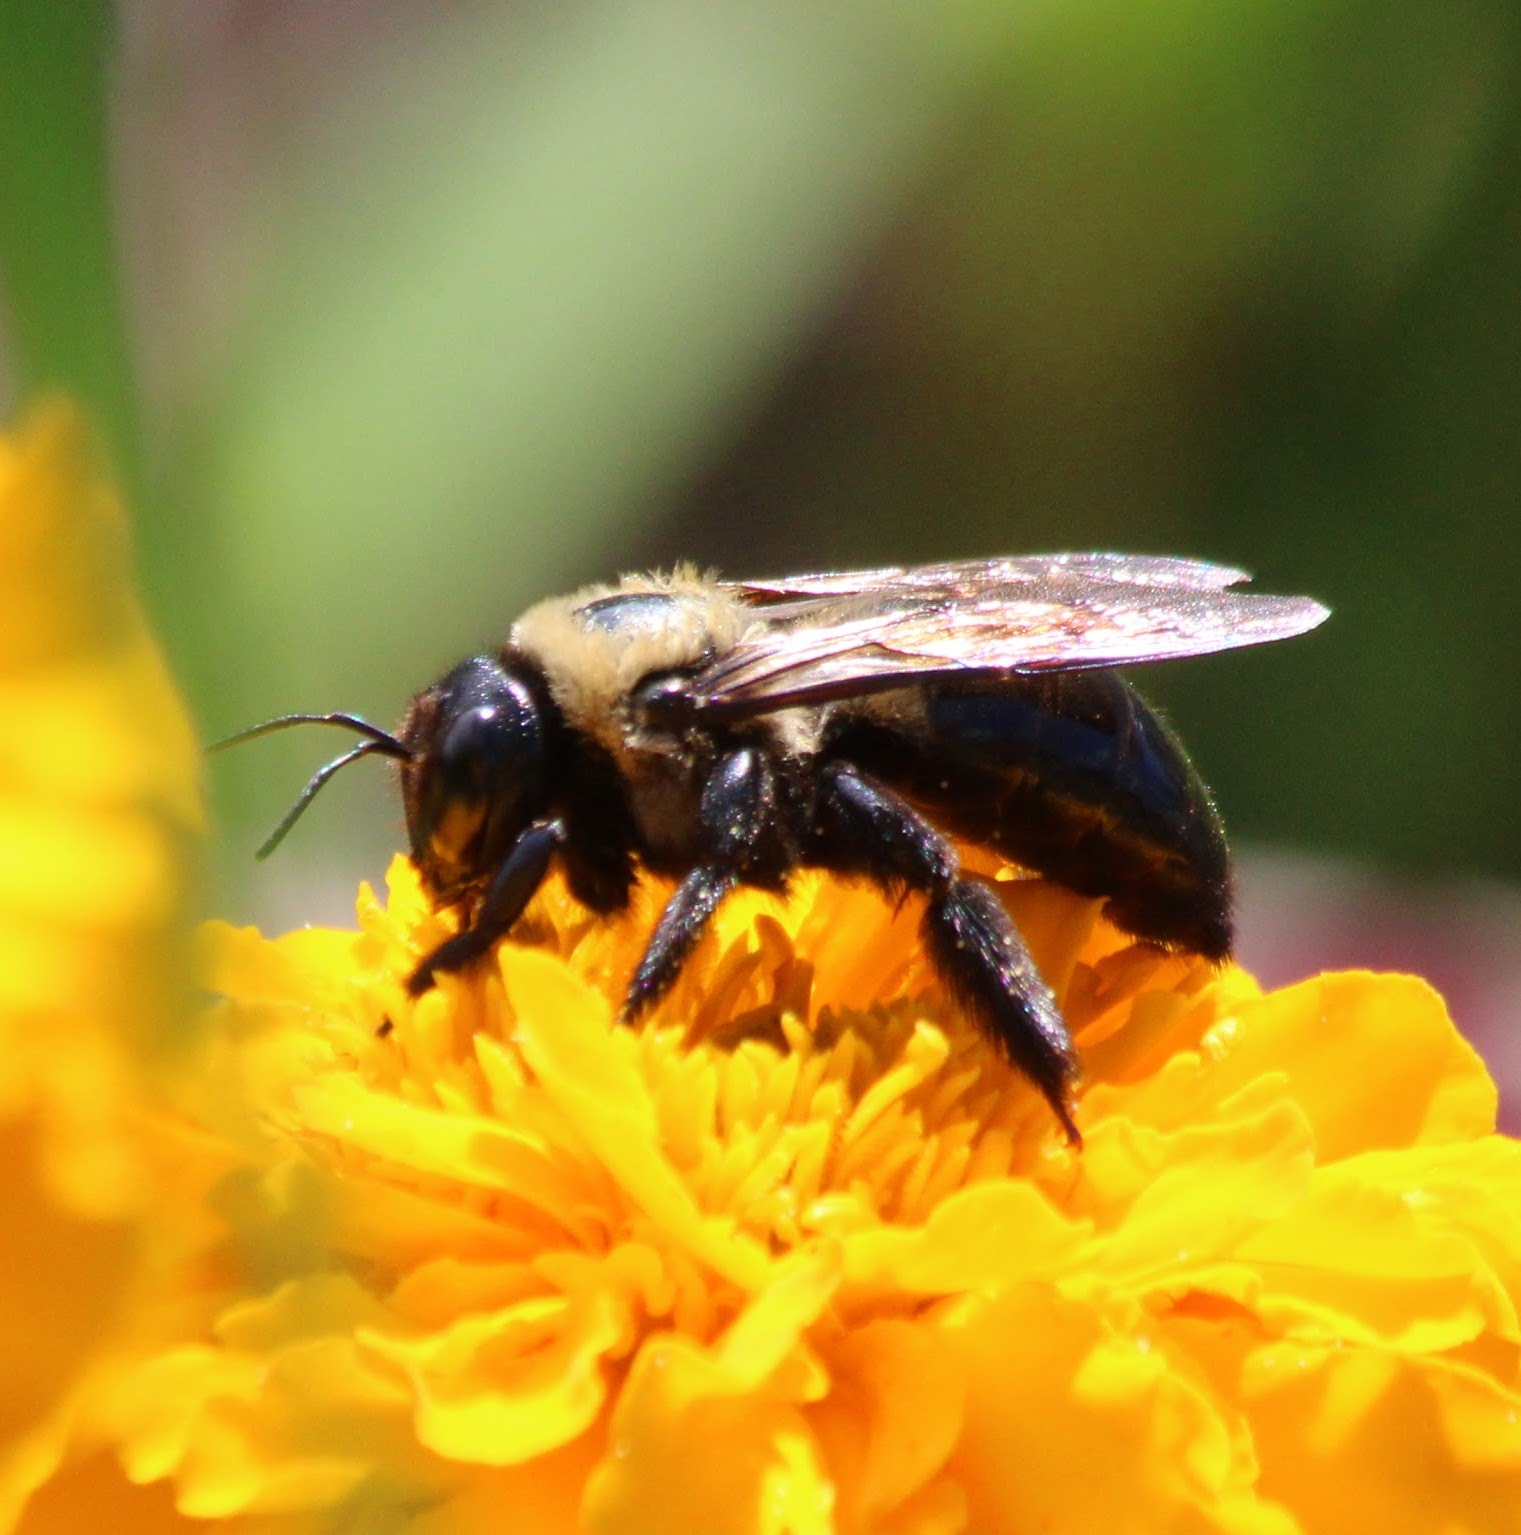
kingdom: Animalia
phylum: Arthropoda
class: Insecta
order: Hymenoptera
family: Apidae
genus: Xylocopa
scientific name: Xylocopa virginica
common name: Carpenter bee
